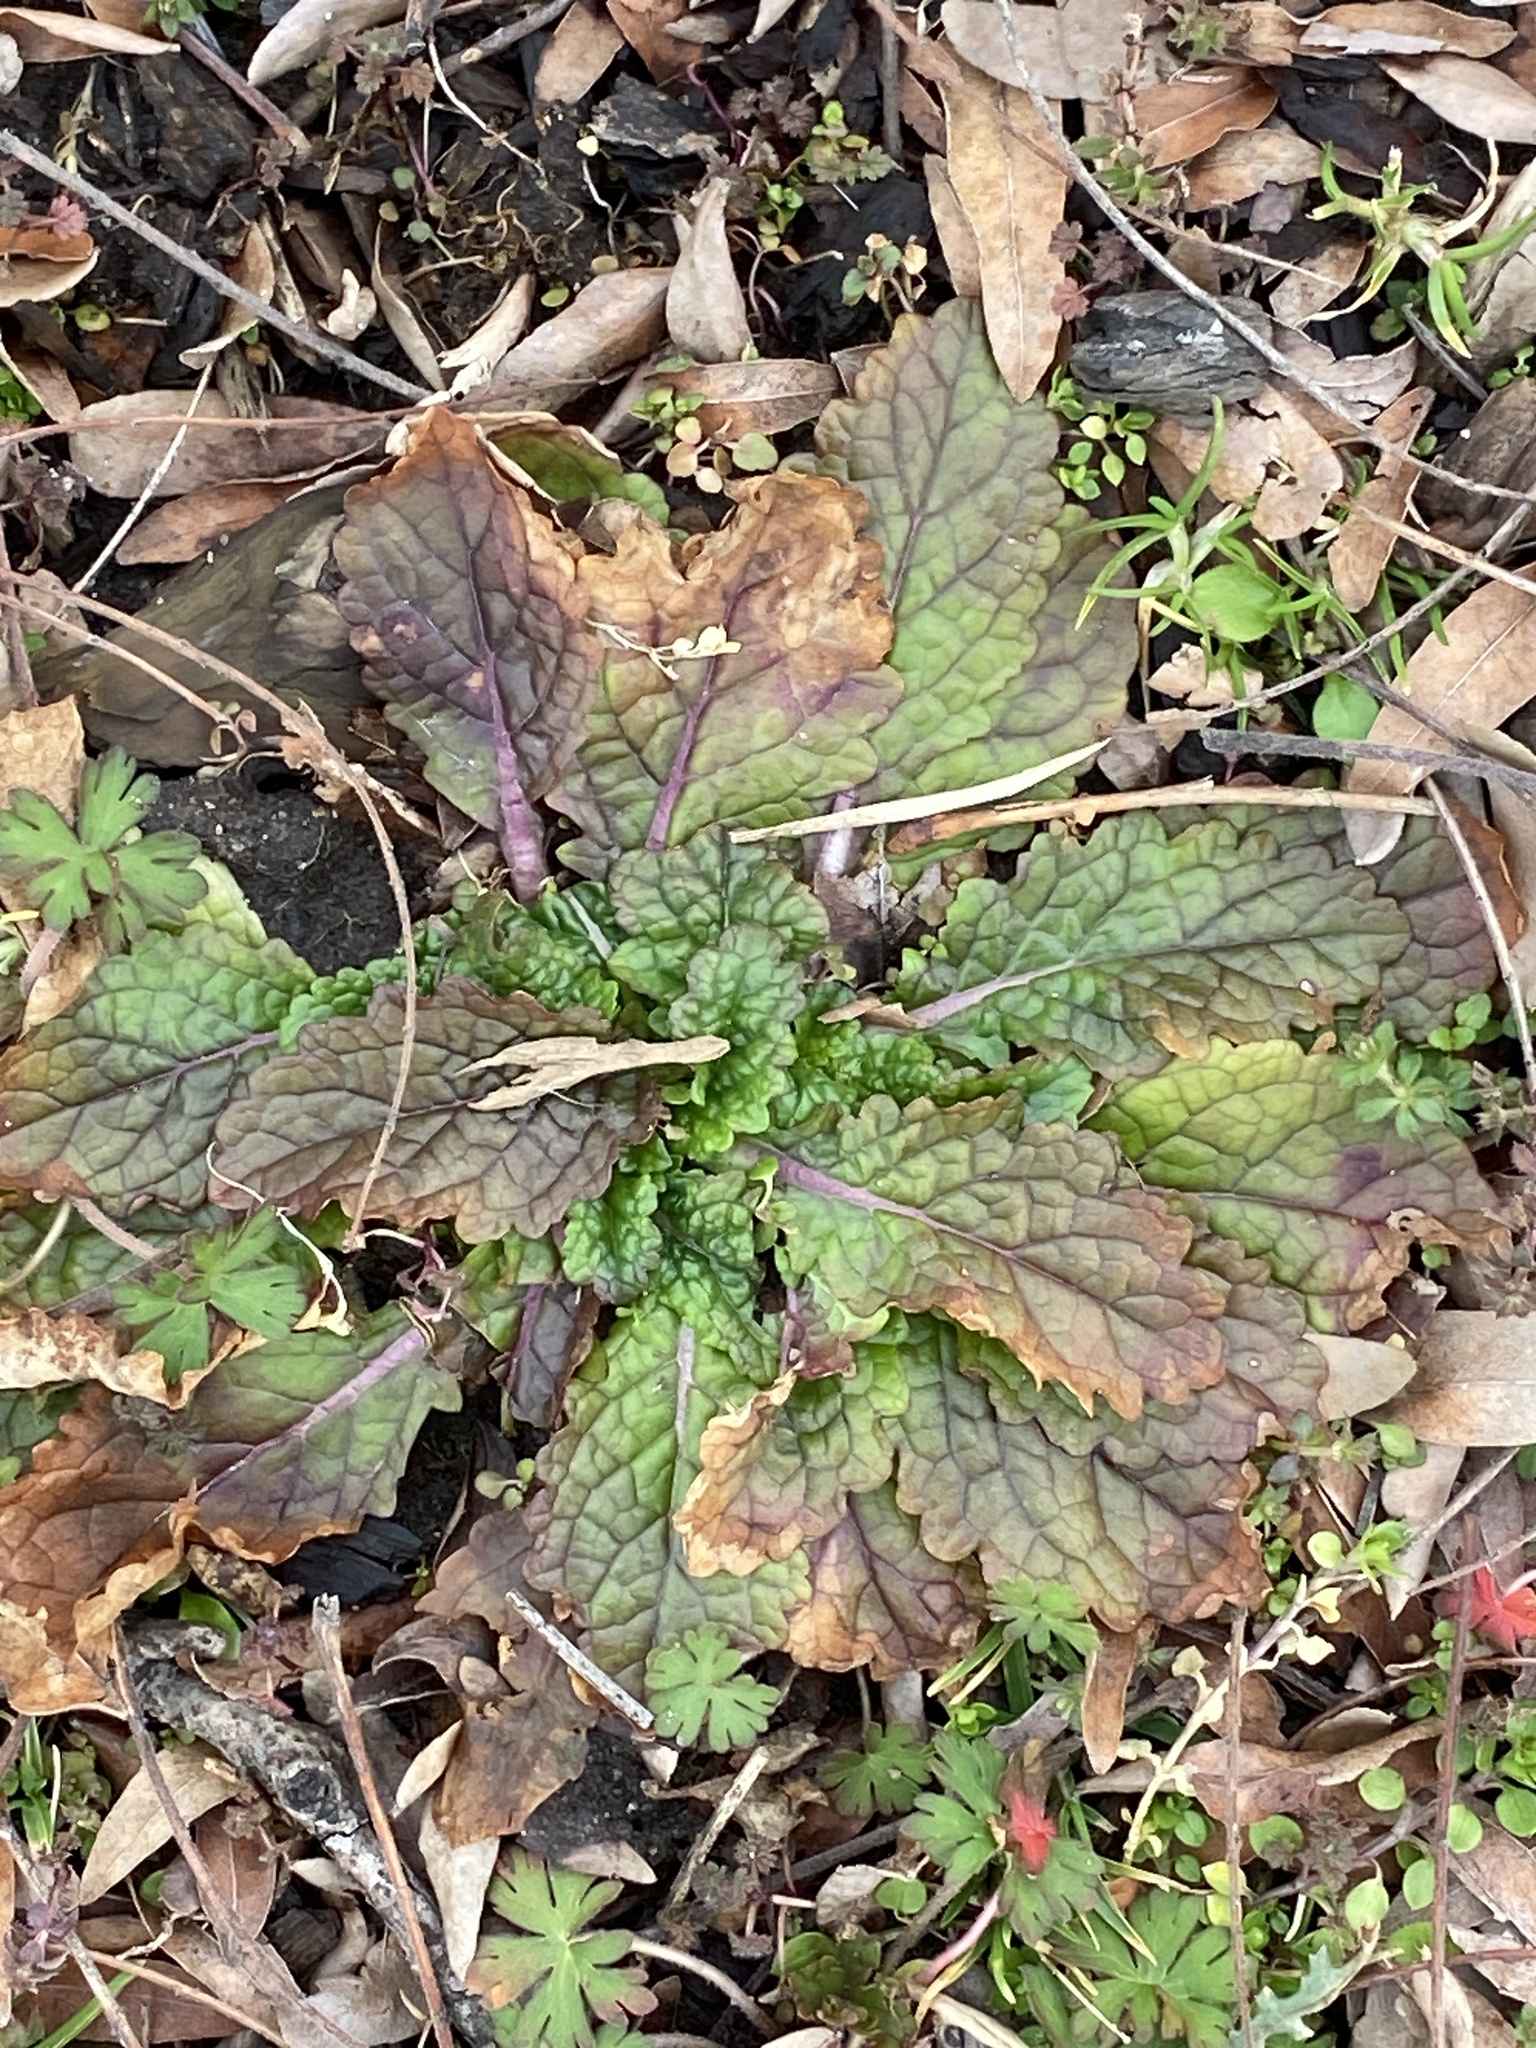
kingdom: Plantae
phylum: Tracheophyta
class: Magnoliopsida
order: Lamiales
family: Scrophulariaceae
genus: Verbascum
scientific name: Verbascum blattaria
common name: Moth mullein
